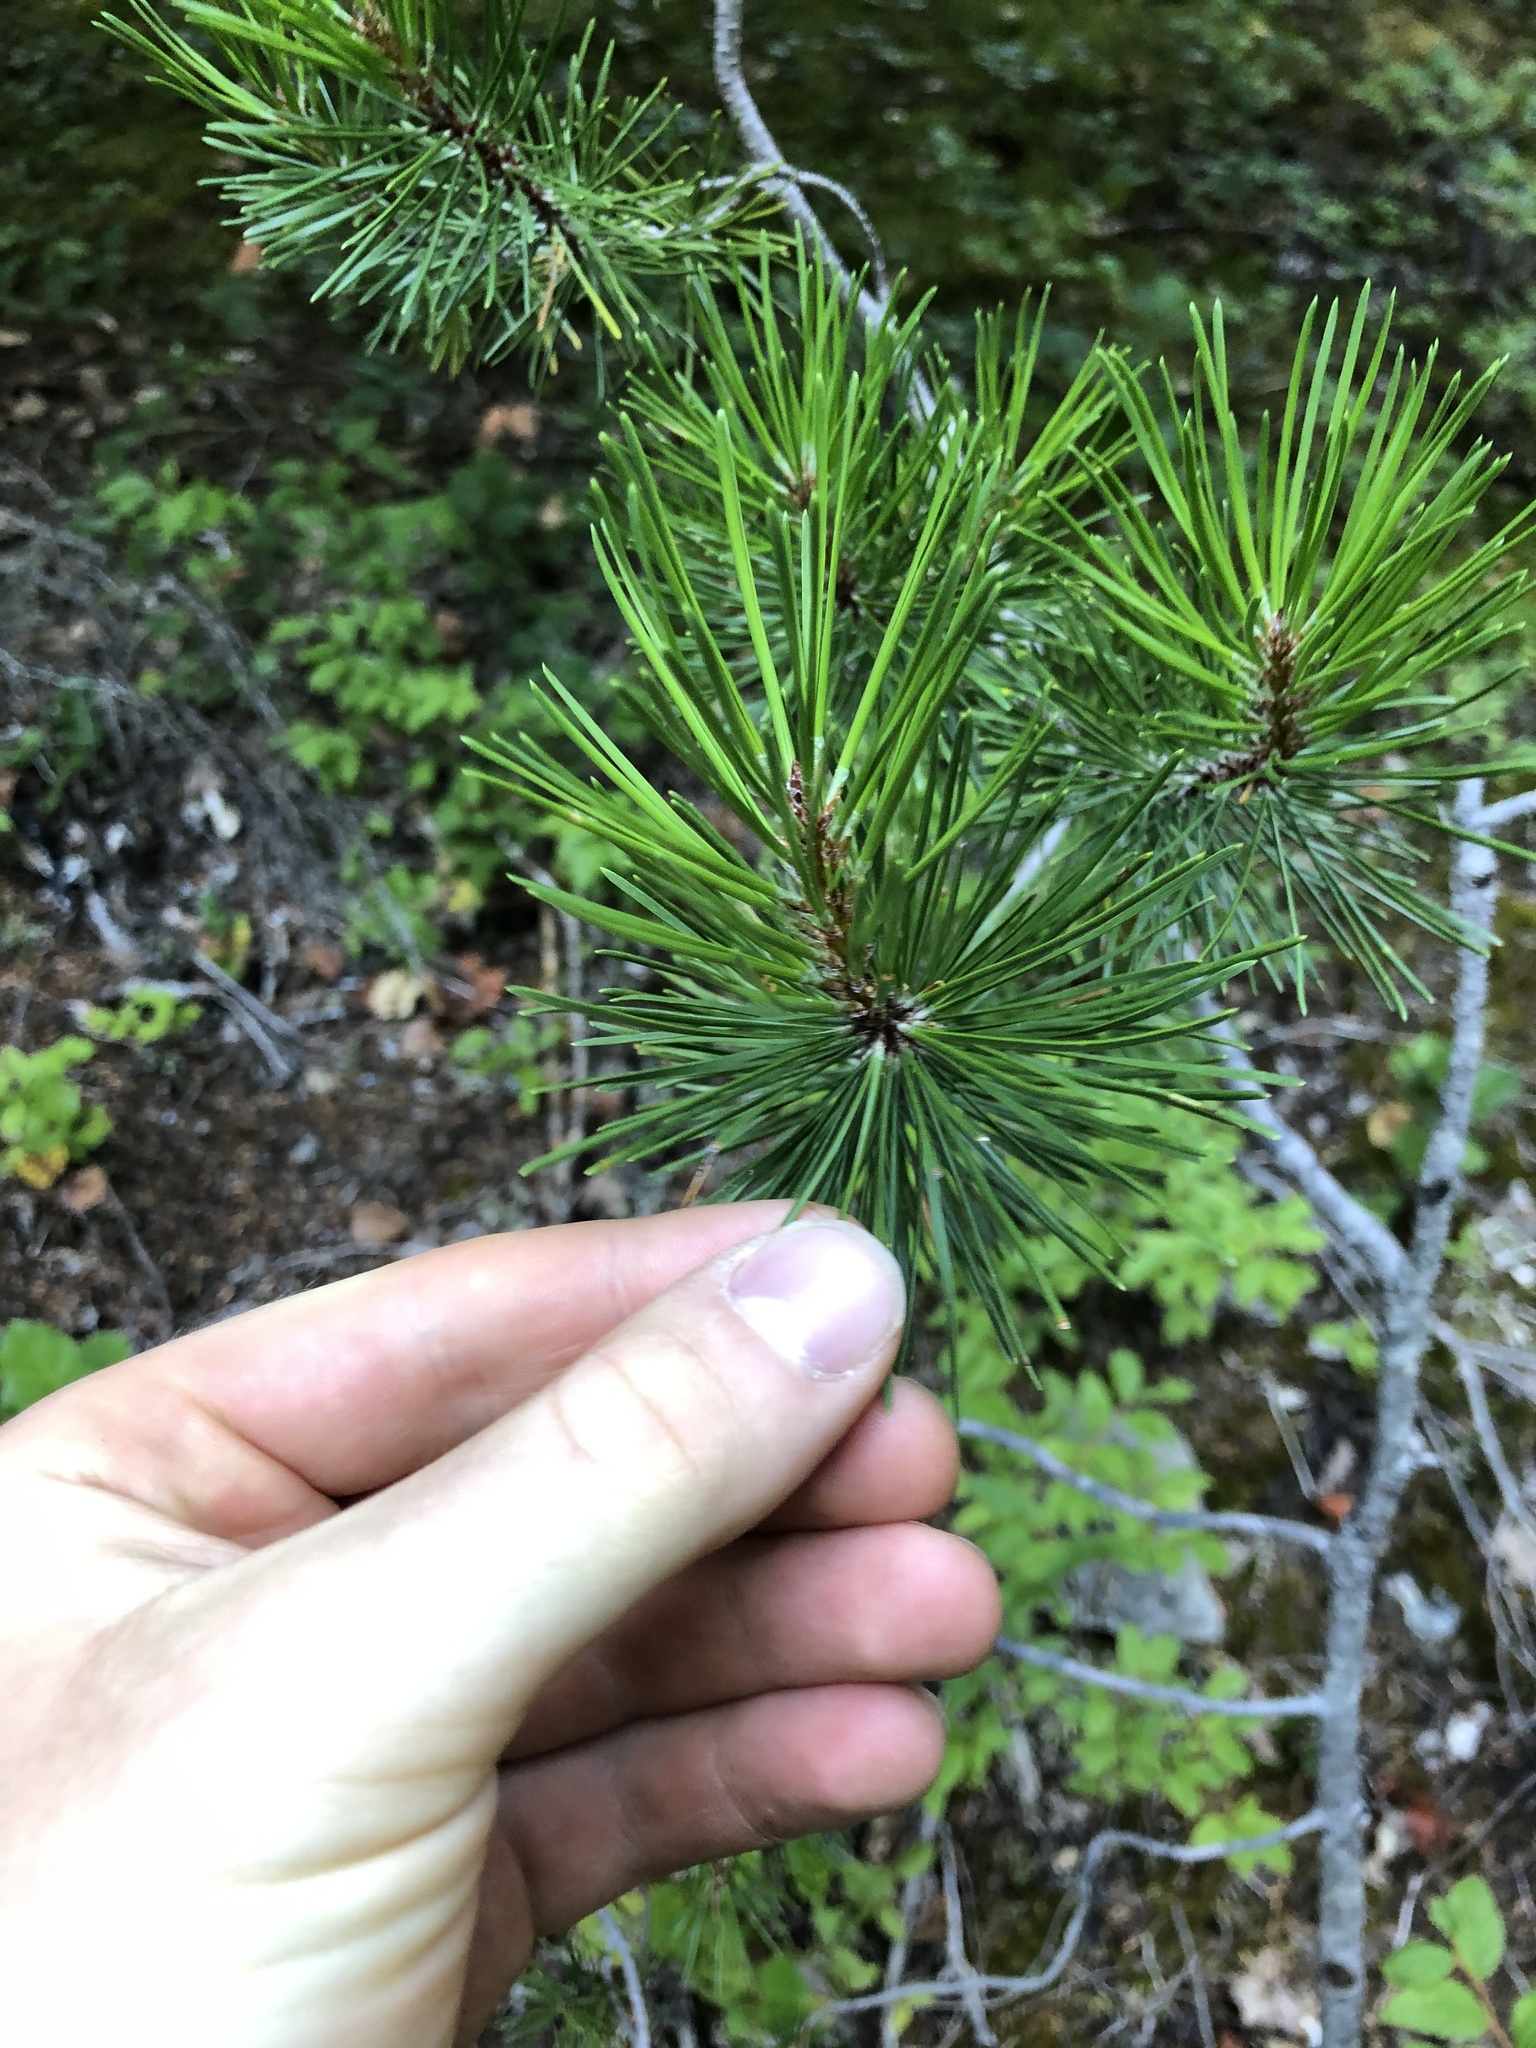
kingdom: Plantae
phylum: Tracheophyta
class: Pinopsida
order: Pinales
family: Pinaceae
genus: Pinus
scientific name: Pinus contorta
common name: Lodgepole pine
